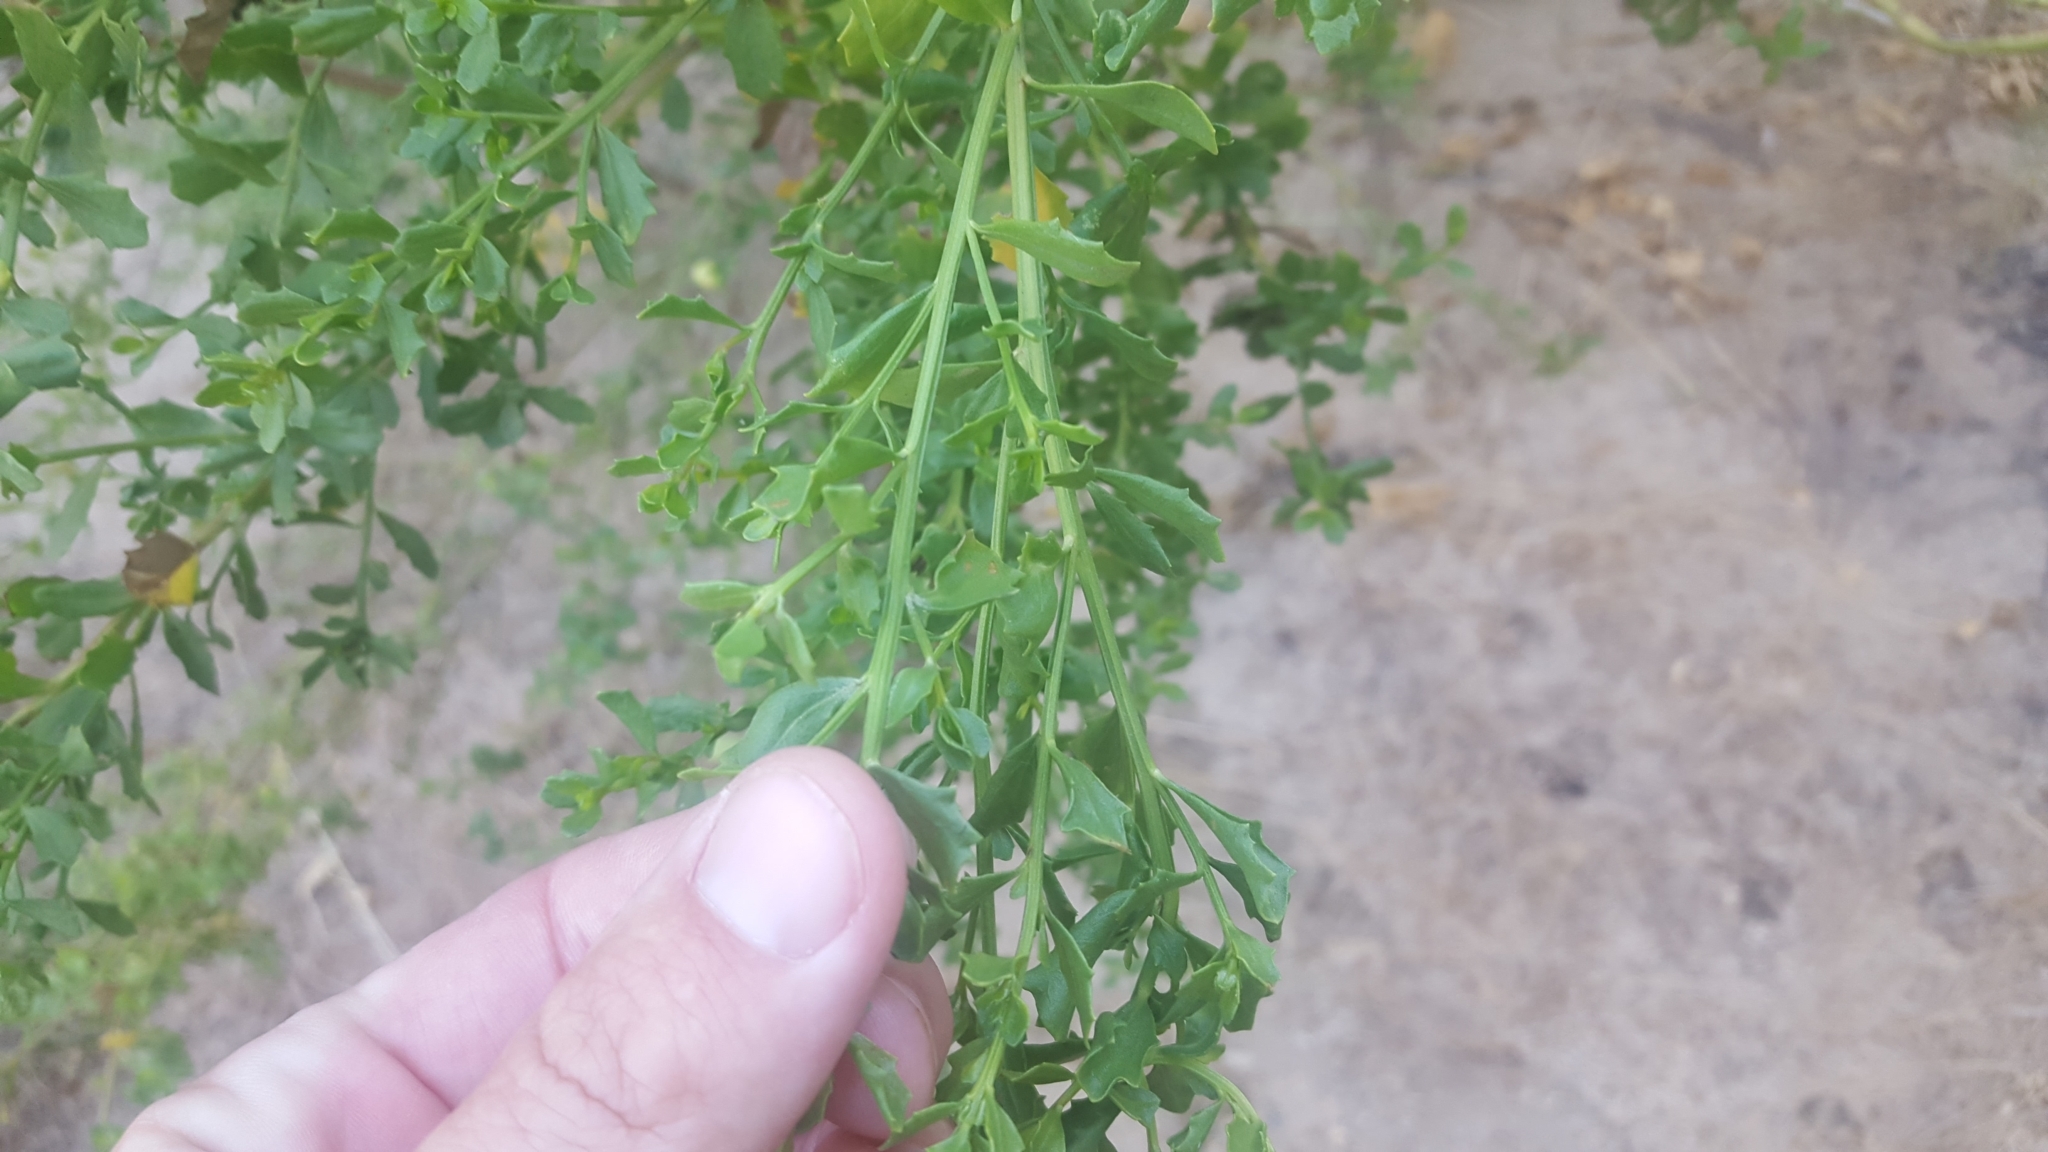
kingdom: Plantae
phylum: Tracheophyta
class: Magnoliopsida
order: Asterales
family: Asteraceae
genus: Baccharis
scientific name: Baccharis pilularis
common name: Coyotebrush
